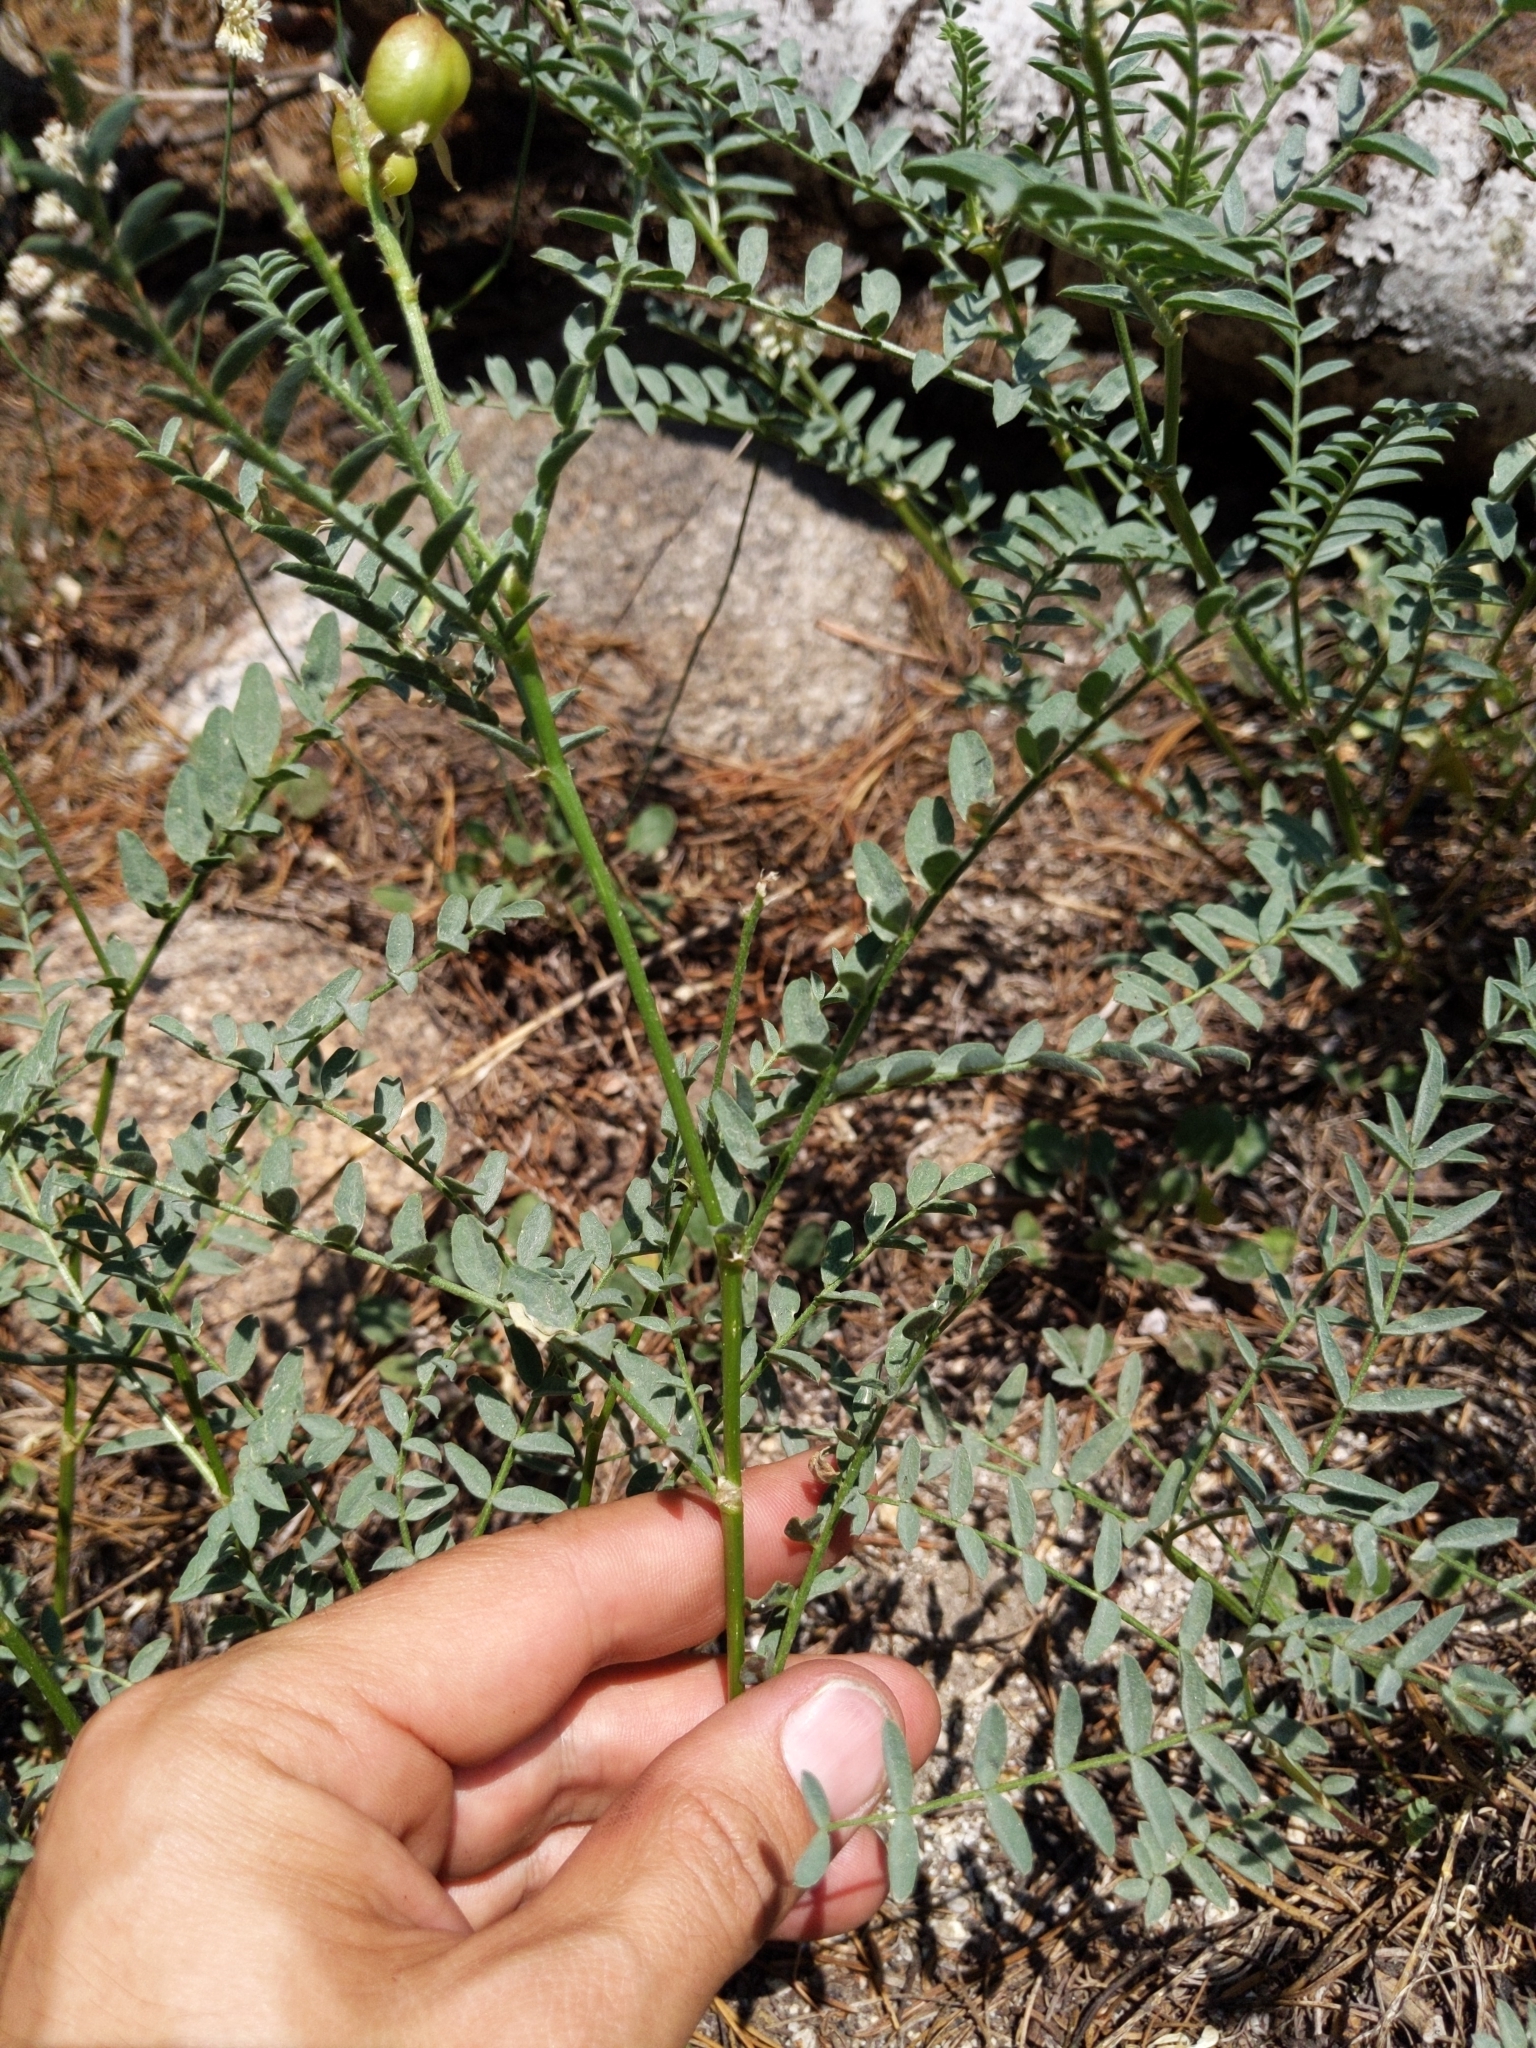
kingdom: Plantae
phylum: Tracheophyta
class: Magnoliopsida
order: Fabales
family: Fabaceae
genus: Astragalus
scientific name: Astragalus bolanderi
